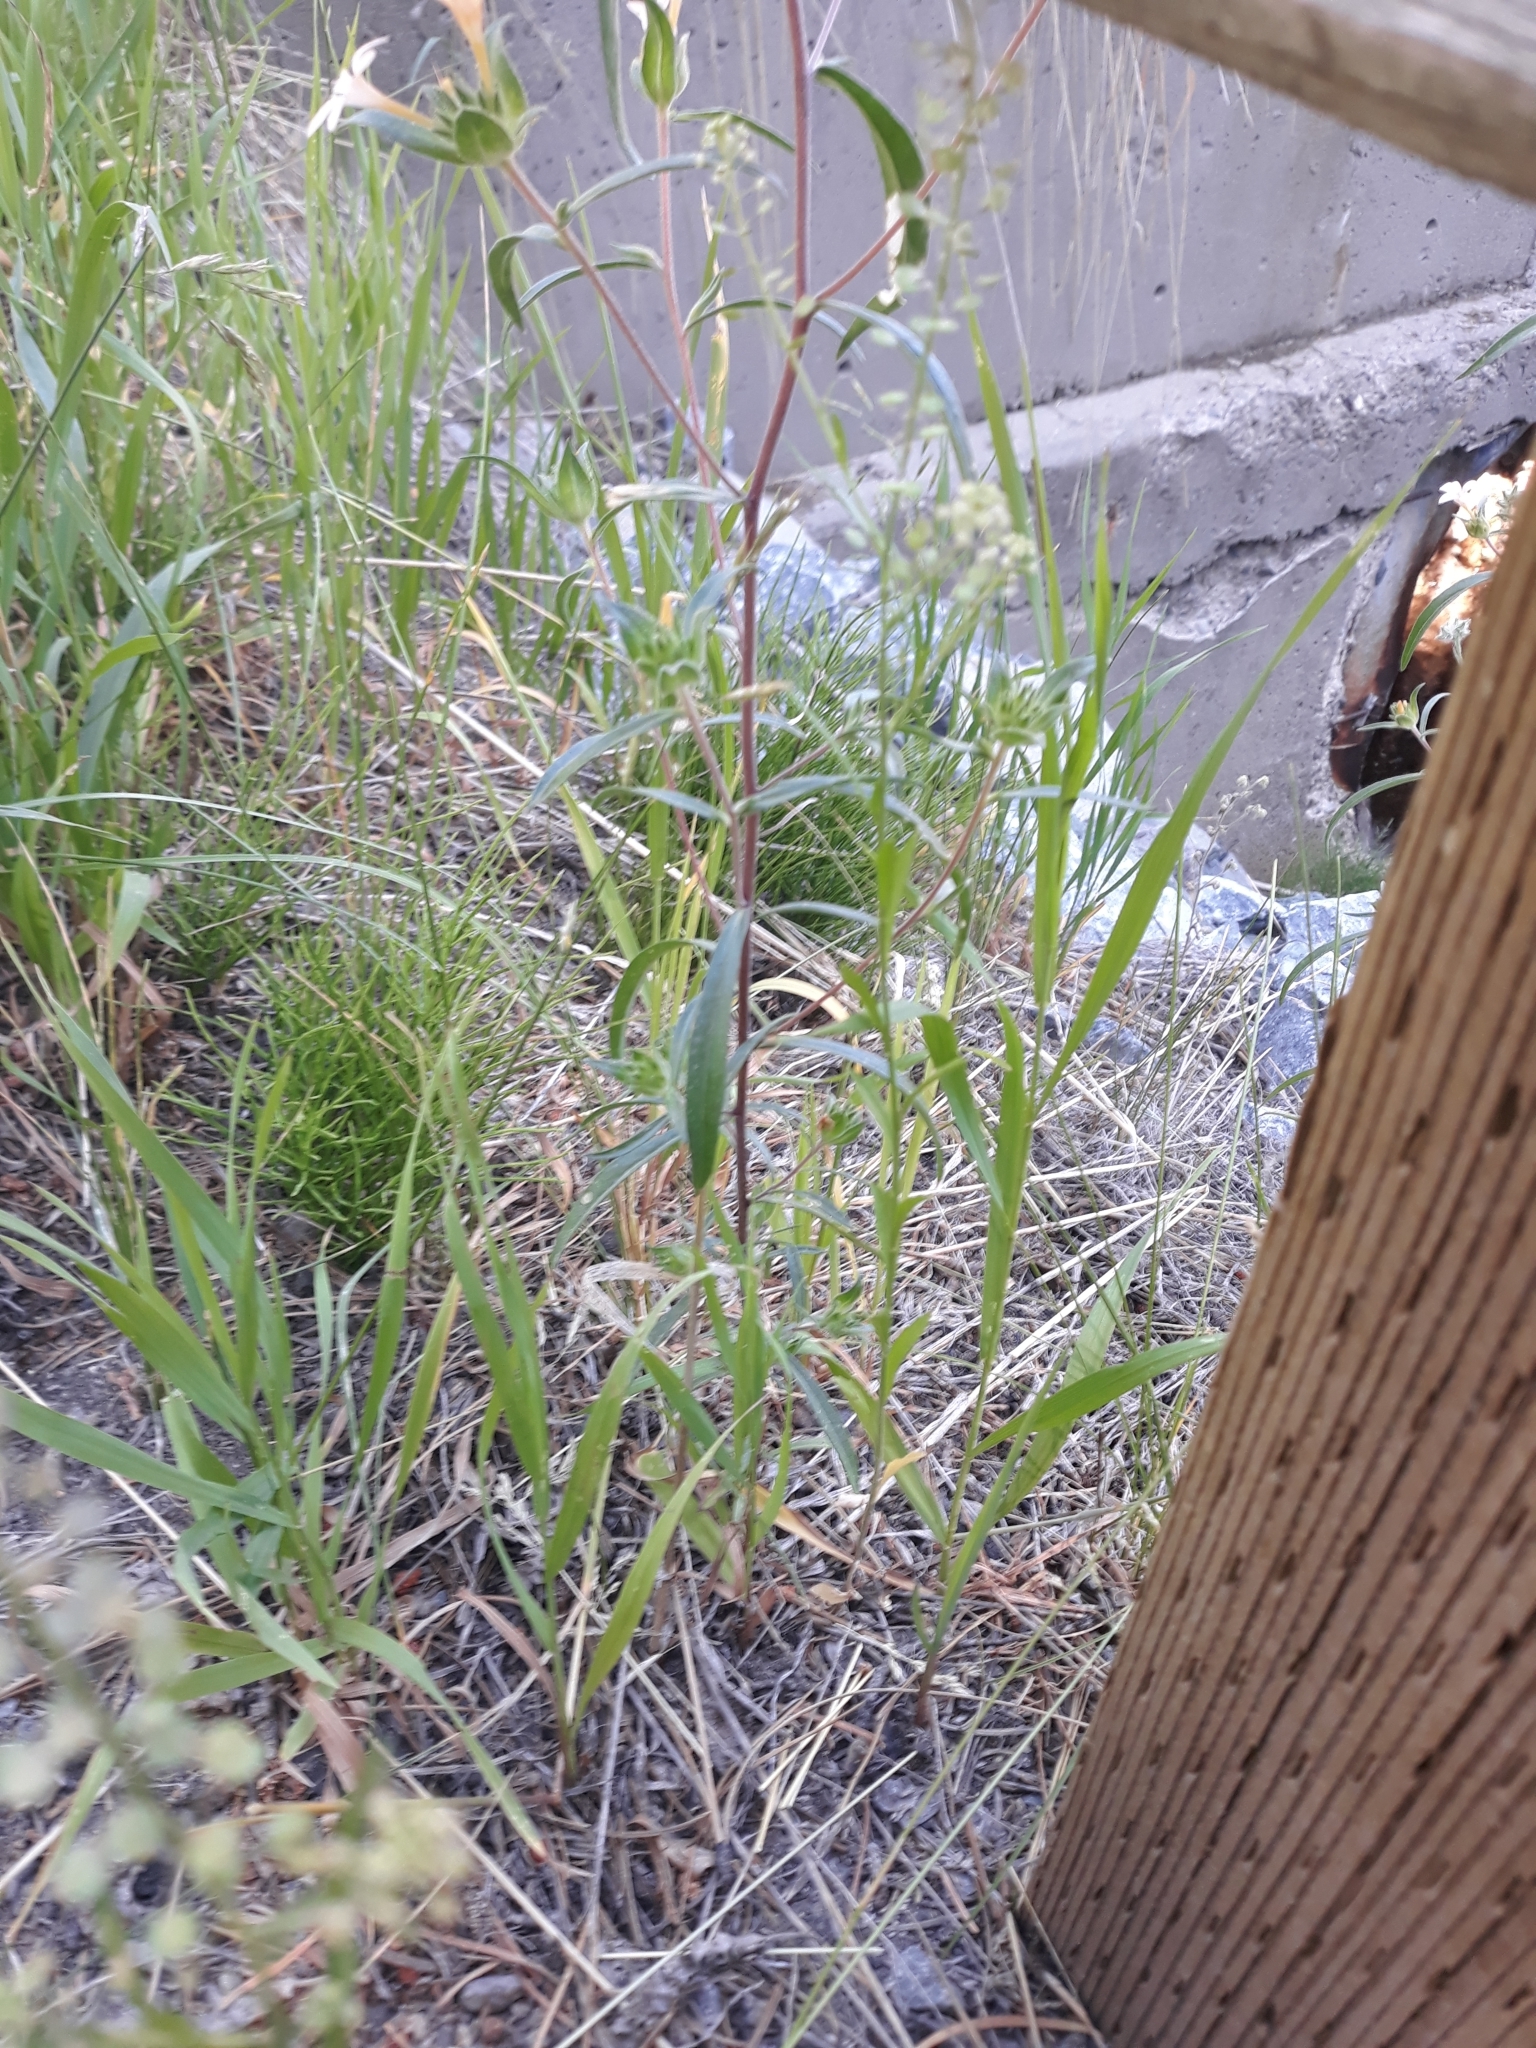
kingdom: Plantae
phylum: Tracheophyta
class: Magnoliopsida
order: Ericales
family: Polemoniaceae
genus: Collomia
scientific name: Collomia grandiflora
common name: California strawflower
